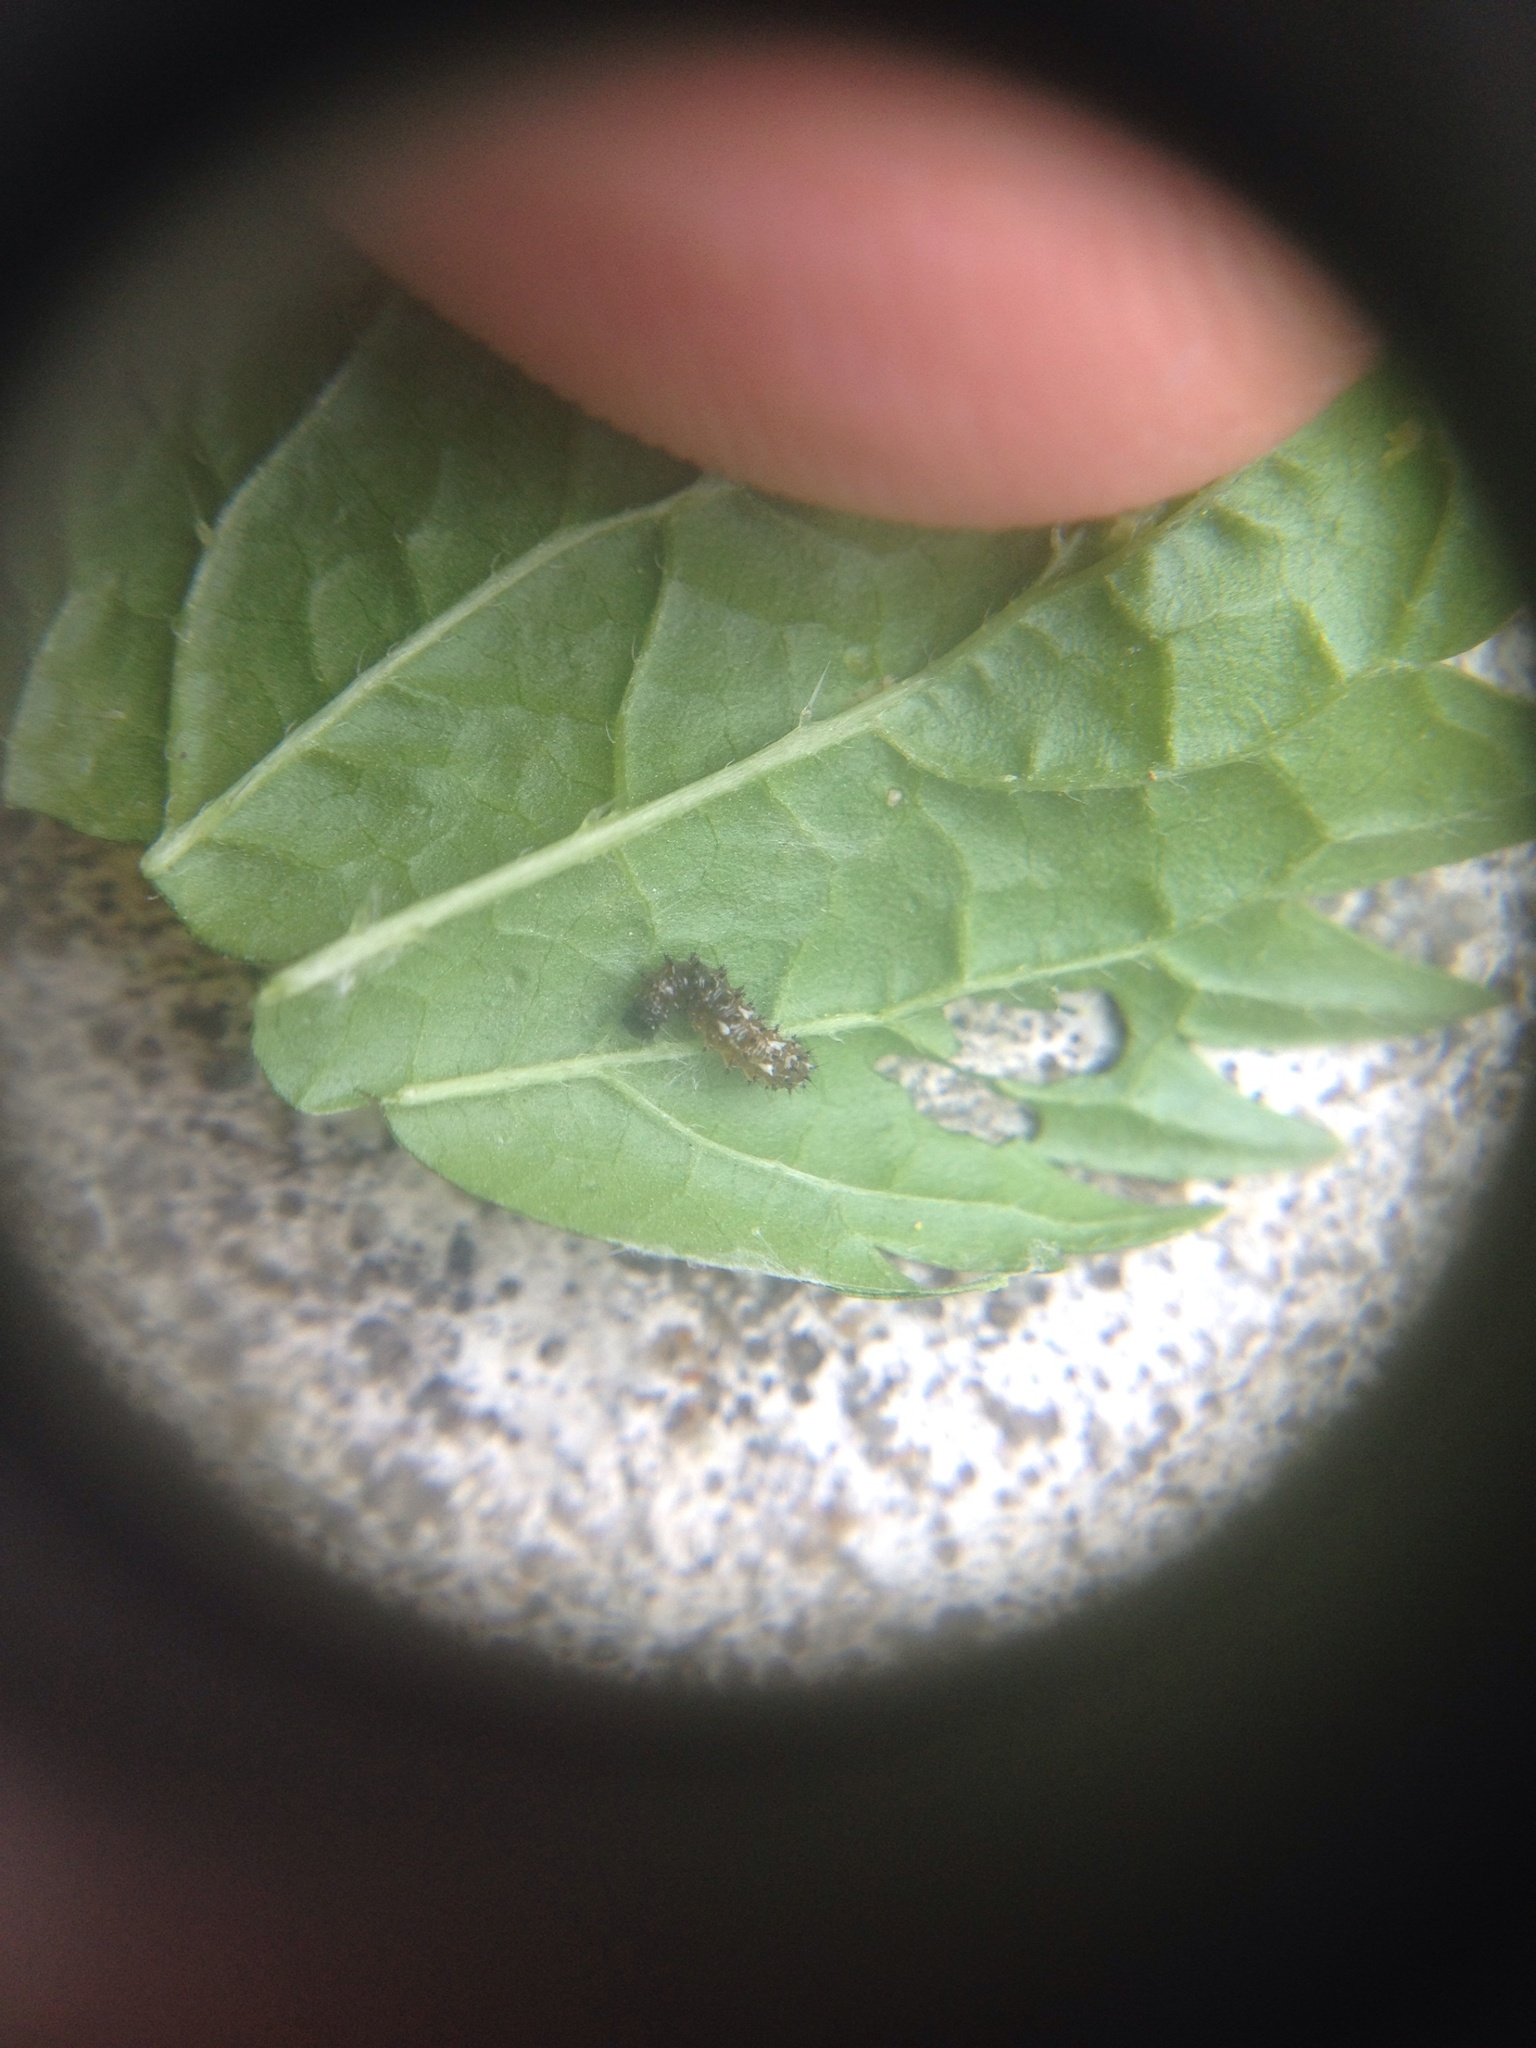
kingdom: Animalia
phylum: Arthropoda
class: Insecta
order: Lepidoptera
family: Nymphalidae
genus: Vanessa
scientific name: Vanessa itea
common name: Yellow admiral
